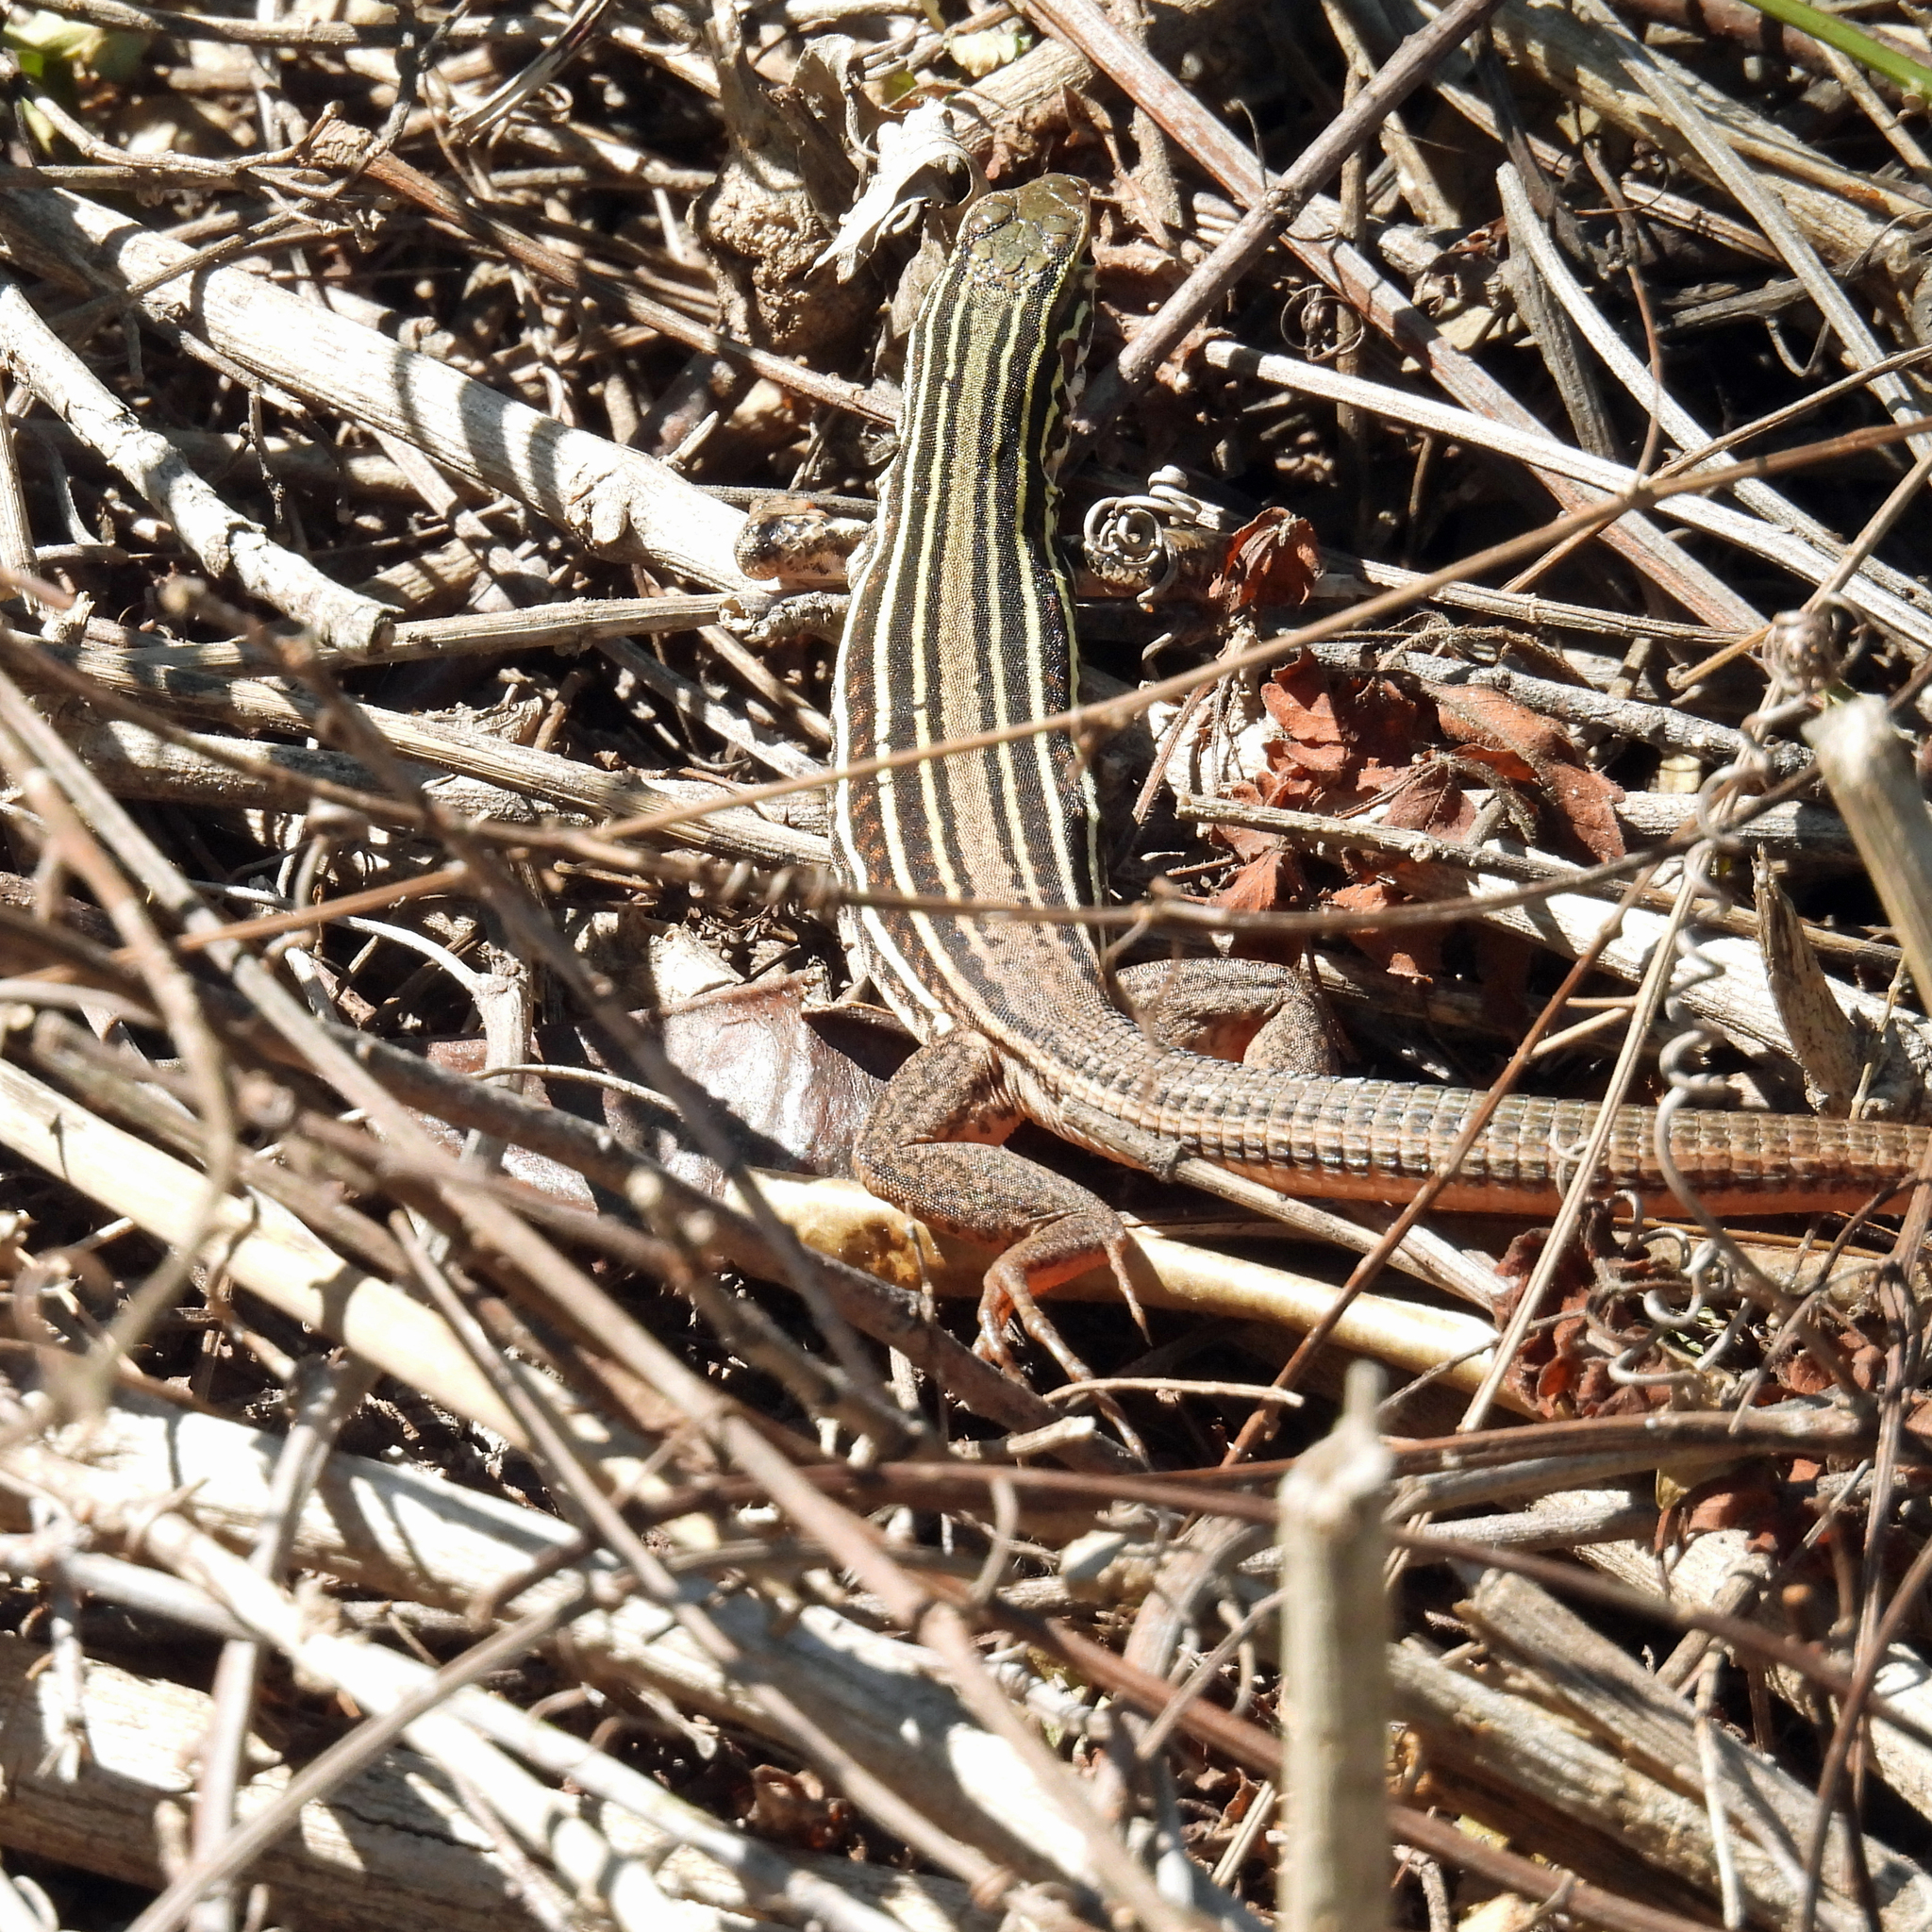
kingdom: Animalia
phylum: Chordata
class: Squamata
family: Teiidae
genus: Aspidoscelis
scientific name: Aspidoscelis gularis
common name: Eastern spotted whiptail
